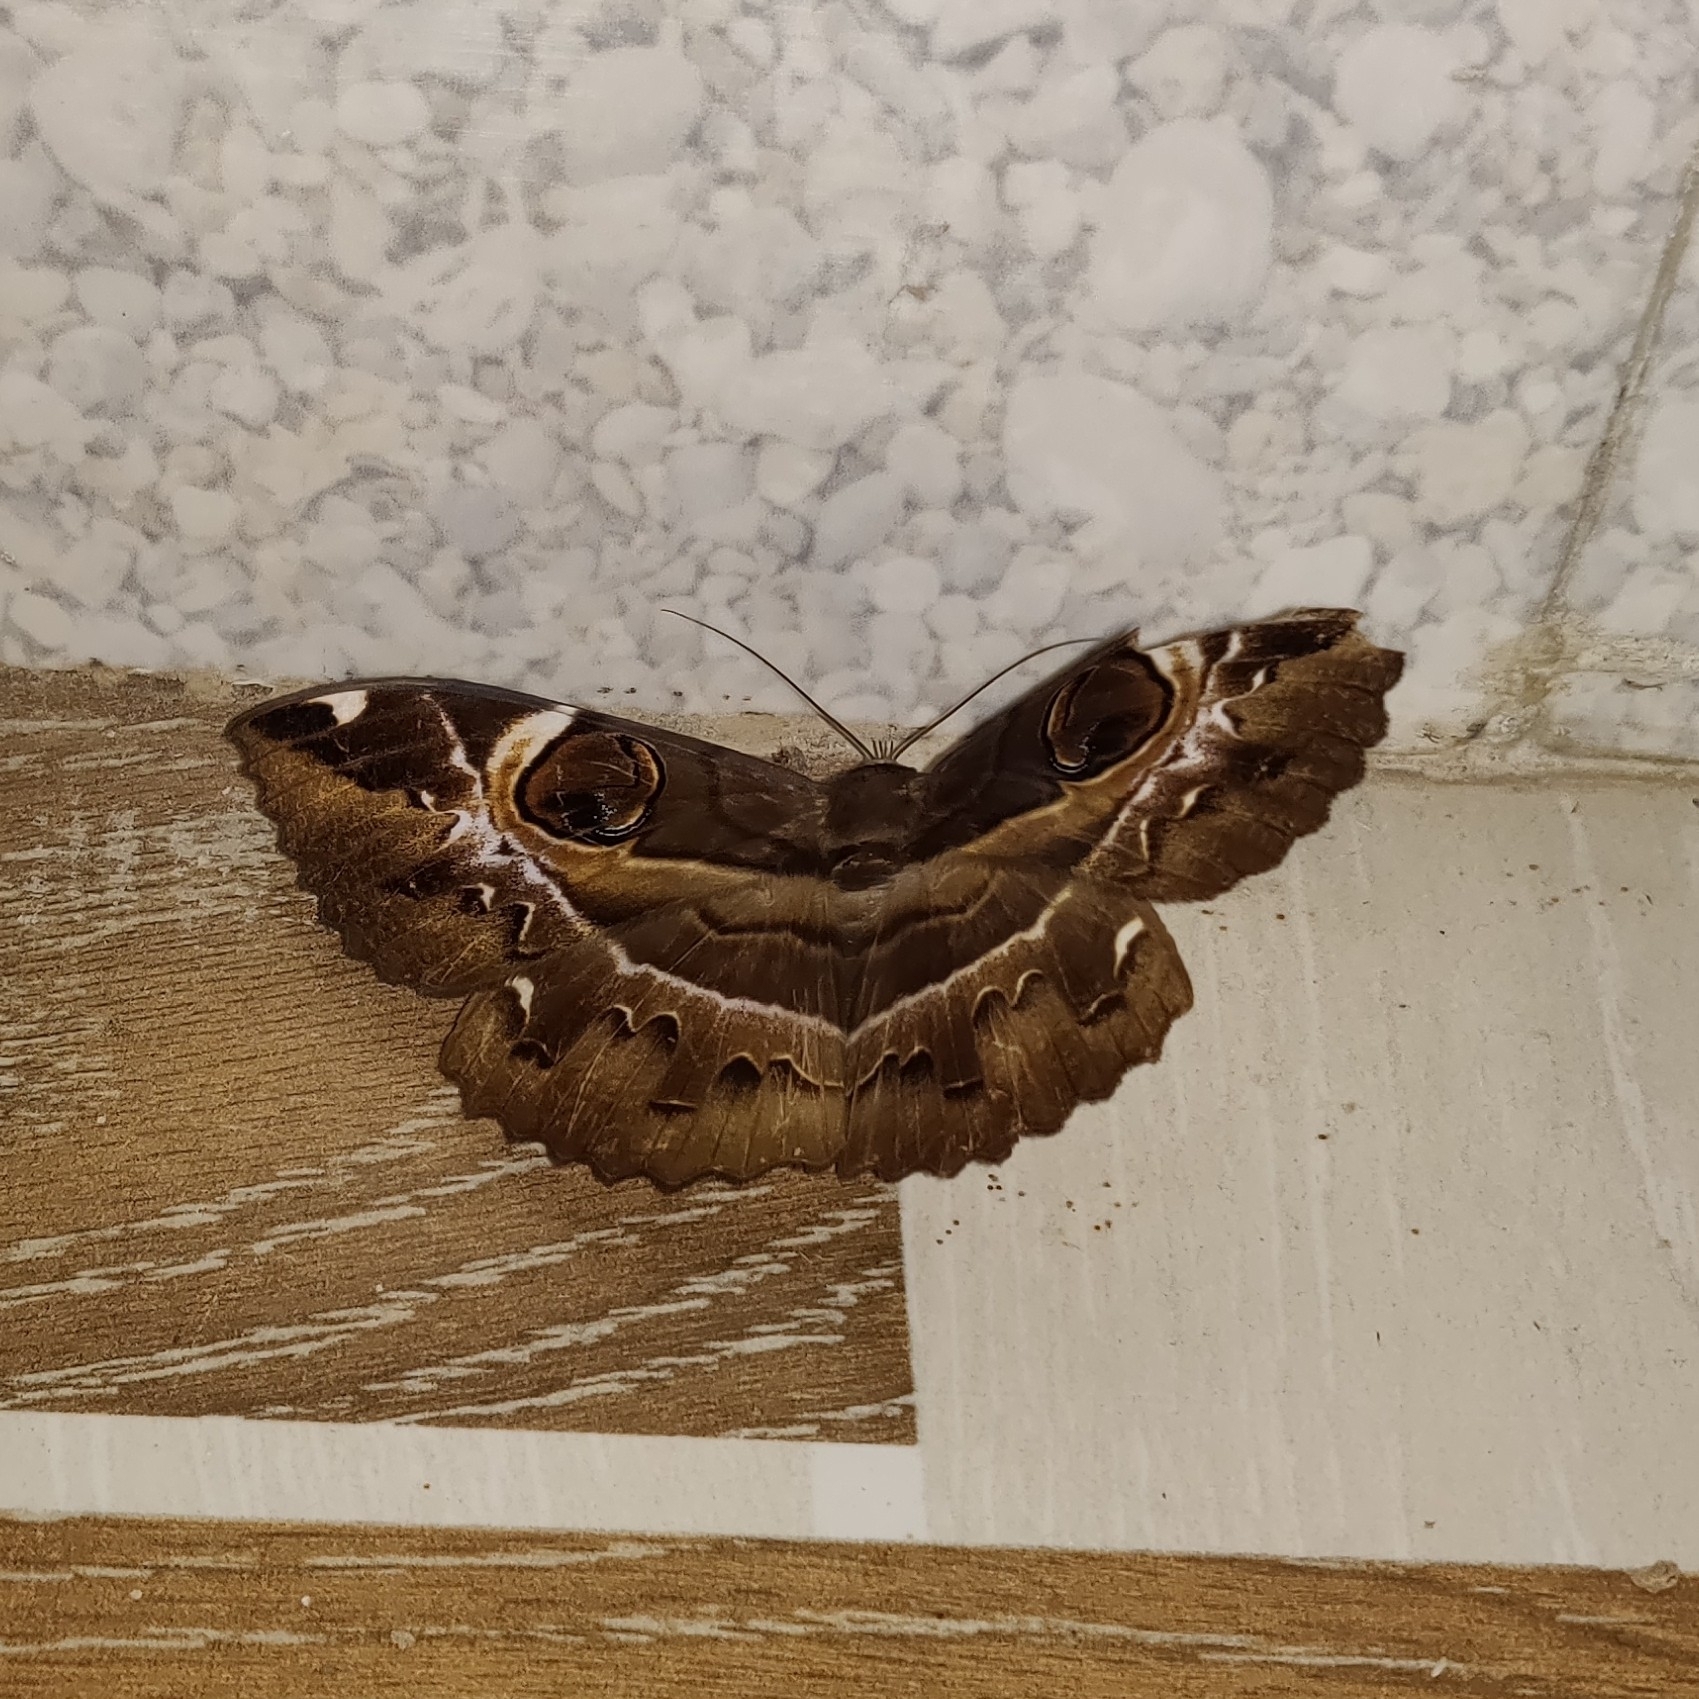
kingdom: Animalia
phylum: Arthropoda
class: Insecta
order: Lepidoptera
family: Erebidae
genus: Erebus
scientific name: Erebus ephesperis
